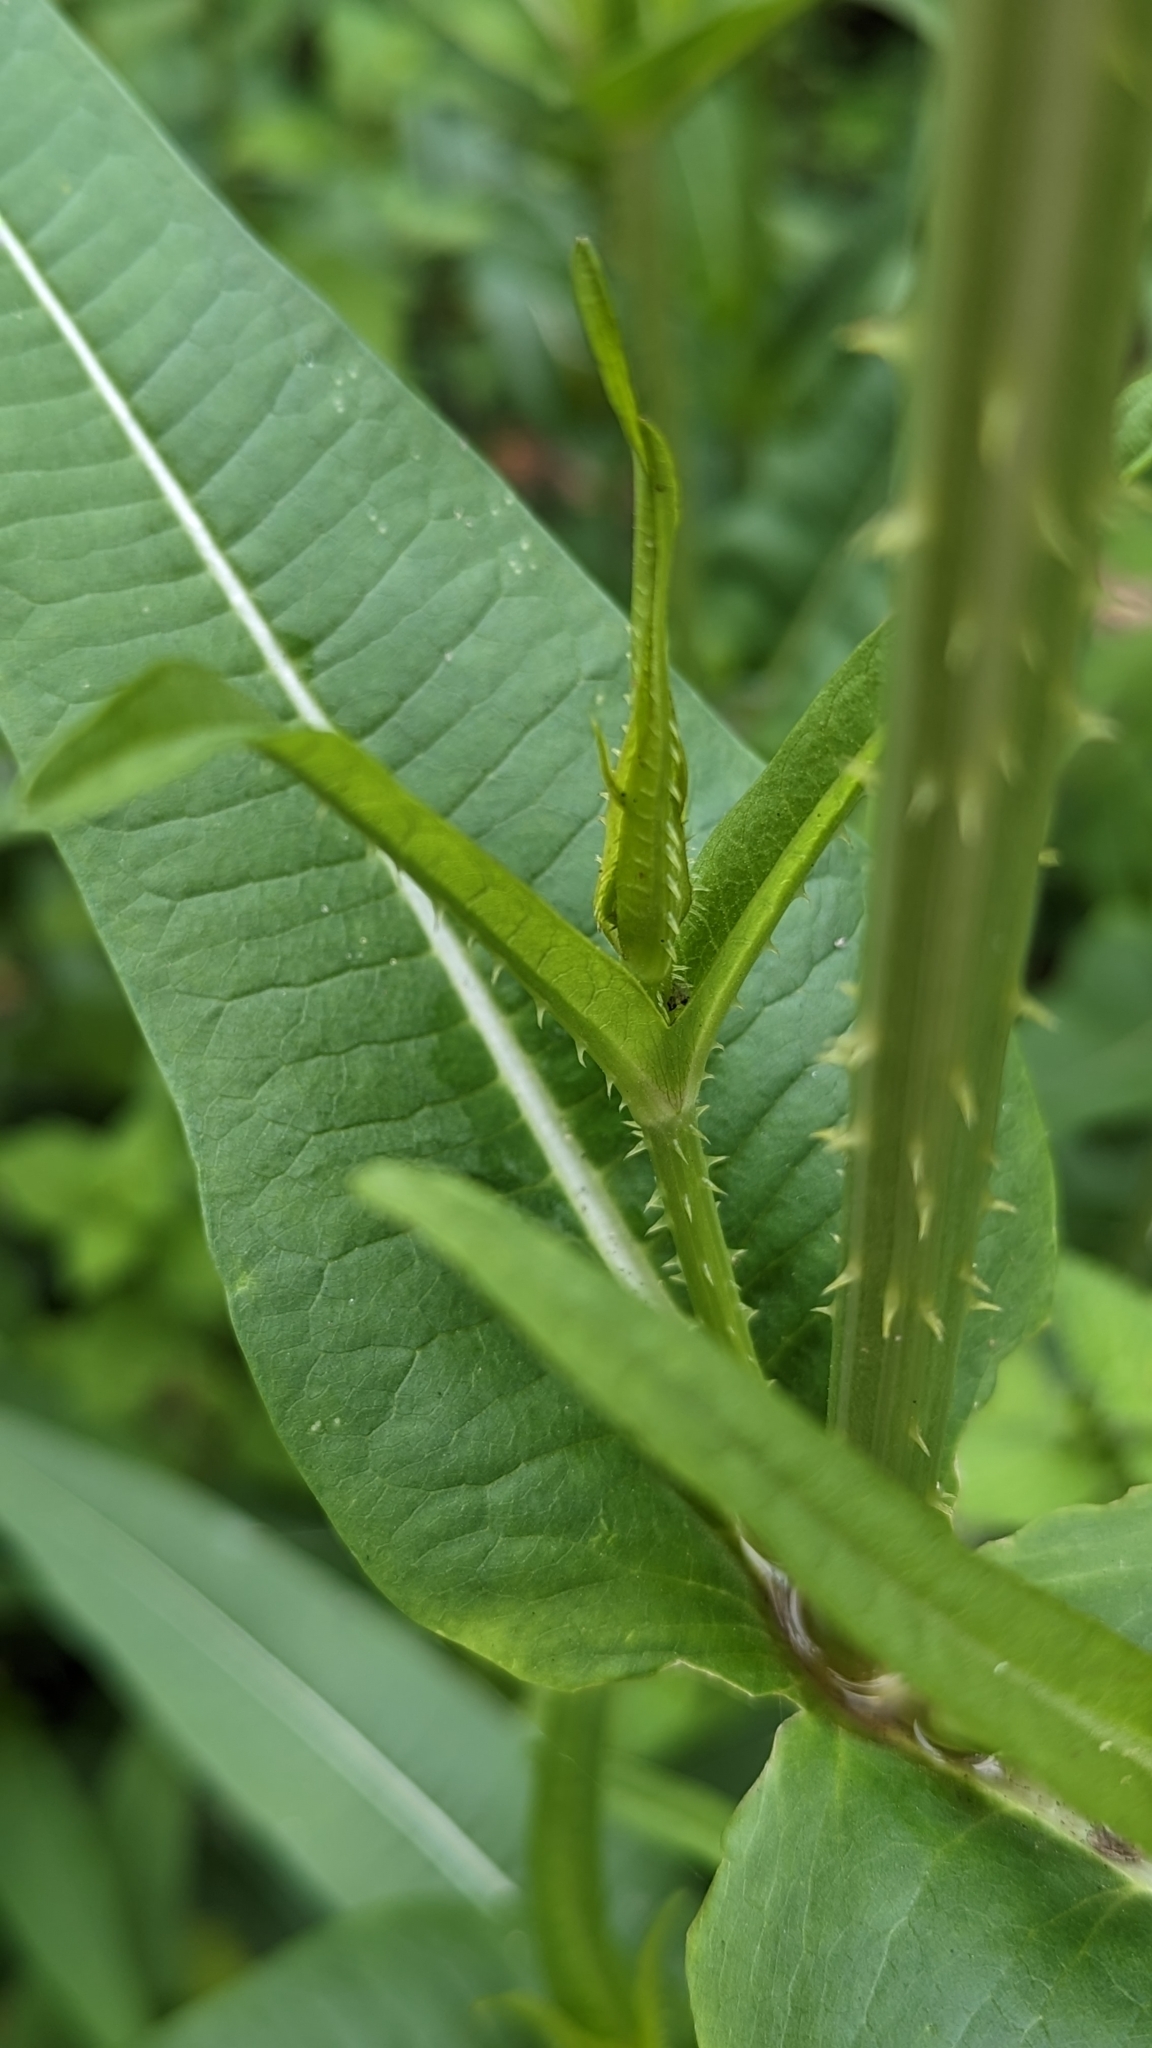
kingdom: Plantae
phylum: Tracheophyta
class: Magnoliopsida
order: Dipsacales
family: Caprifoliaceae
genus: Dipsacus
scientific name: Dipsacus fullonum
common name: Teasel
